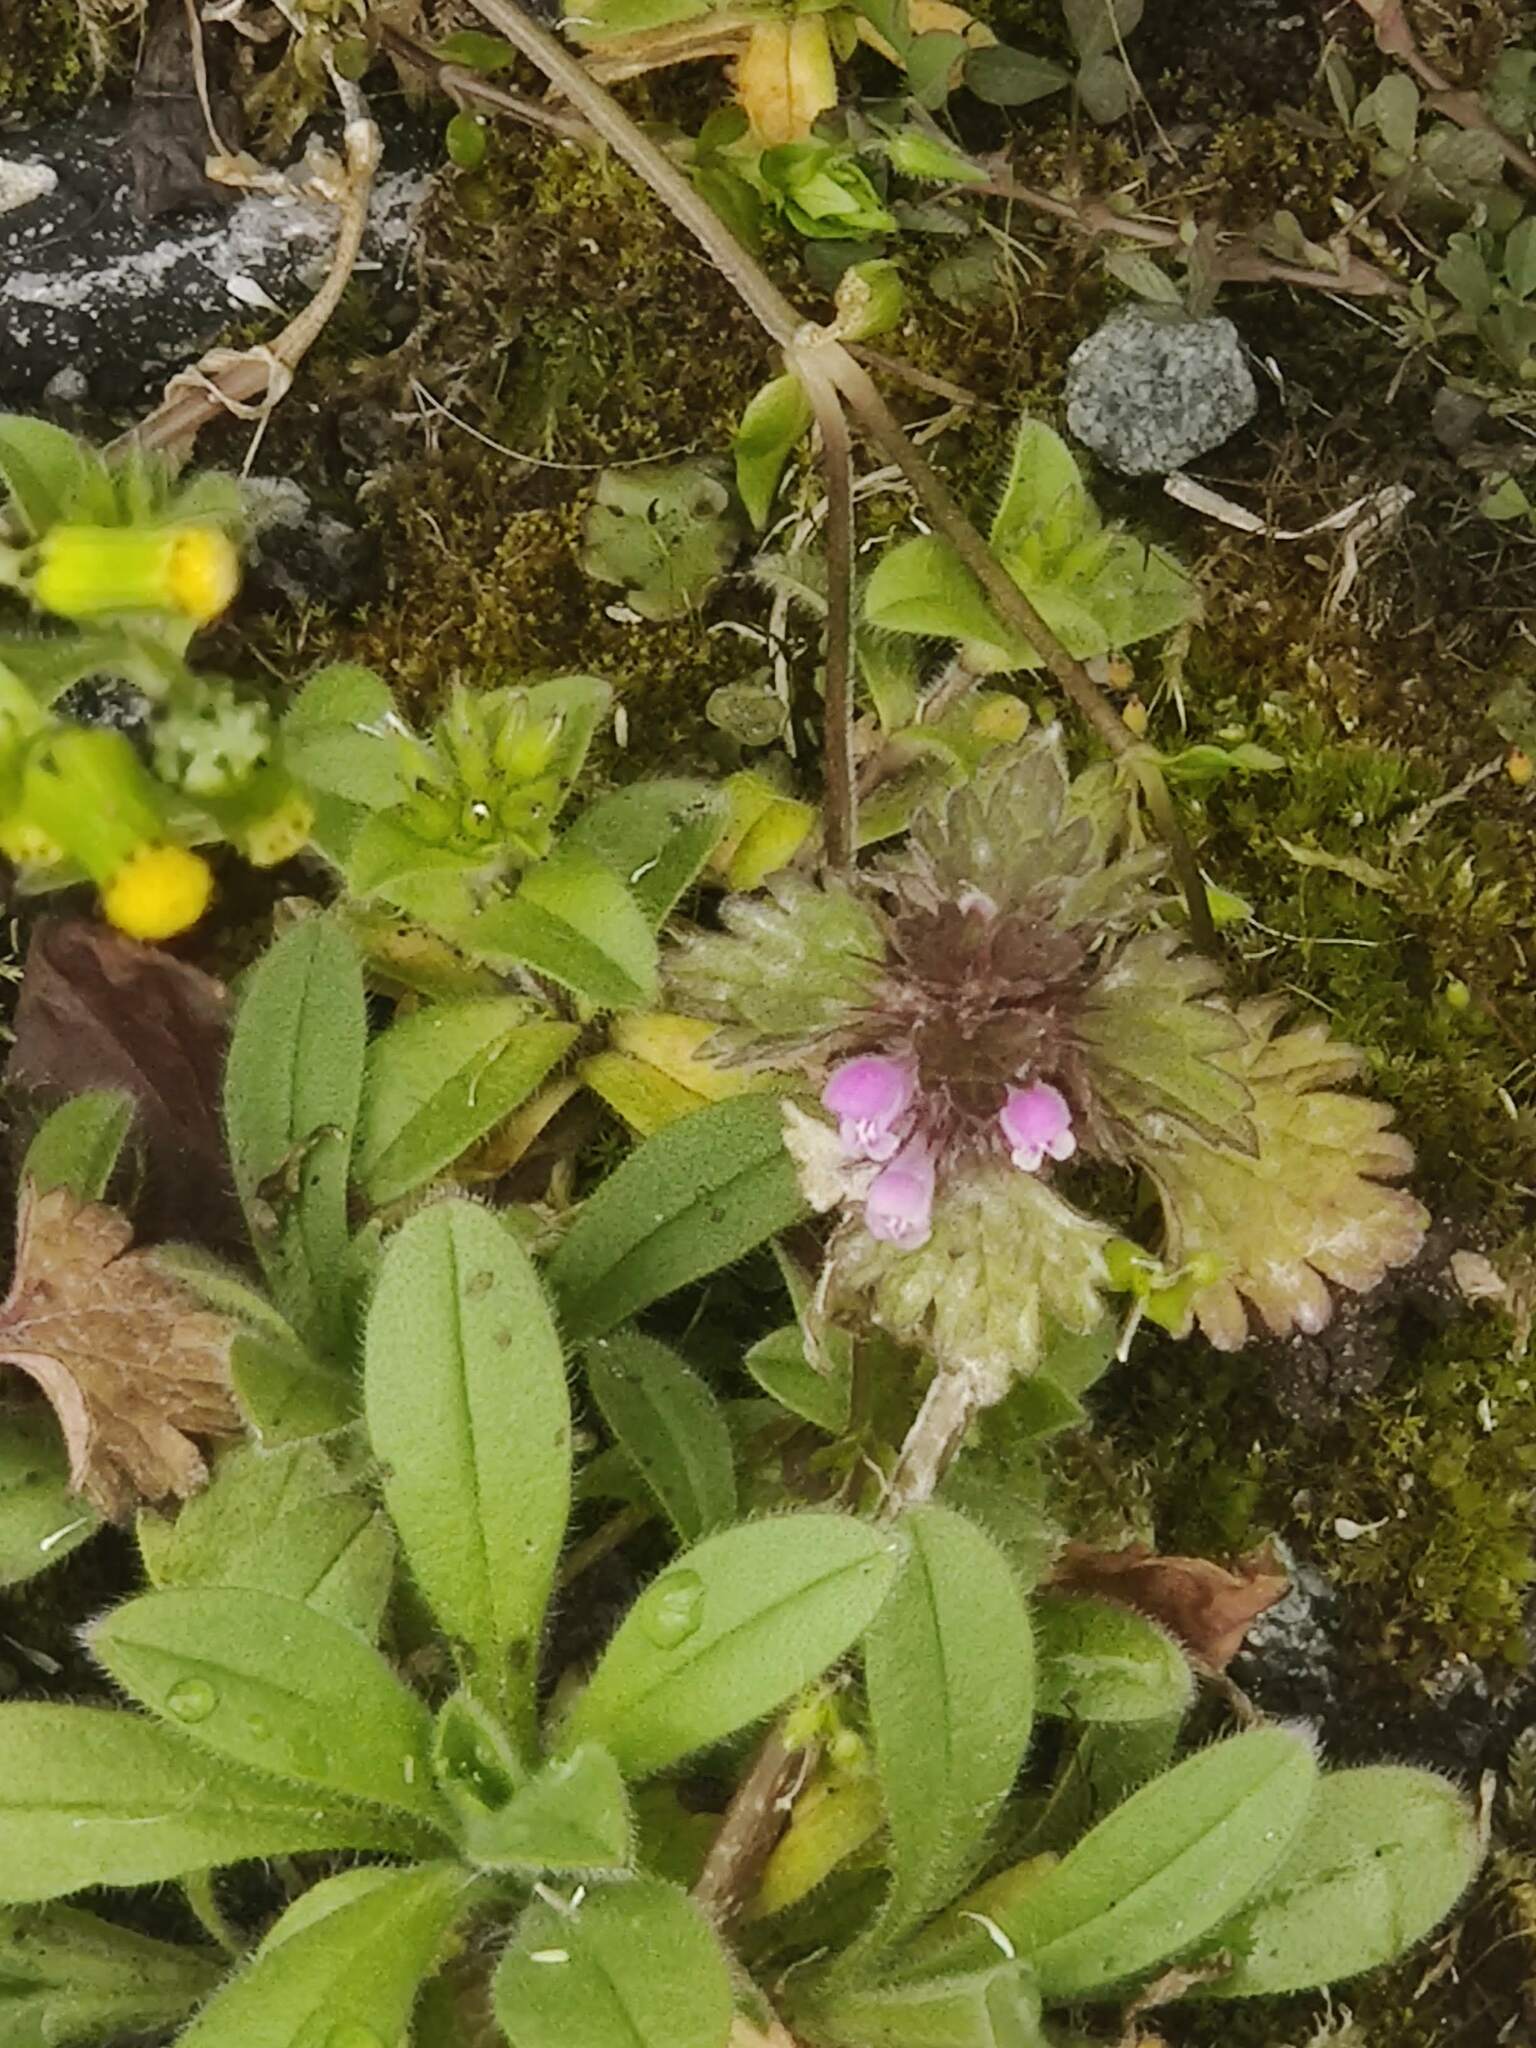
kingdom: Plantae
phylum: Tracheophyta
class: Magnoliopsida
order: Lamiales
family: Lamiaceae
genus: Lamium
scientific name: Lamium hybridum
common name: Cut-leaved dead-nettle
